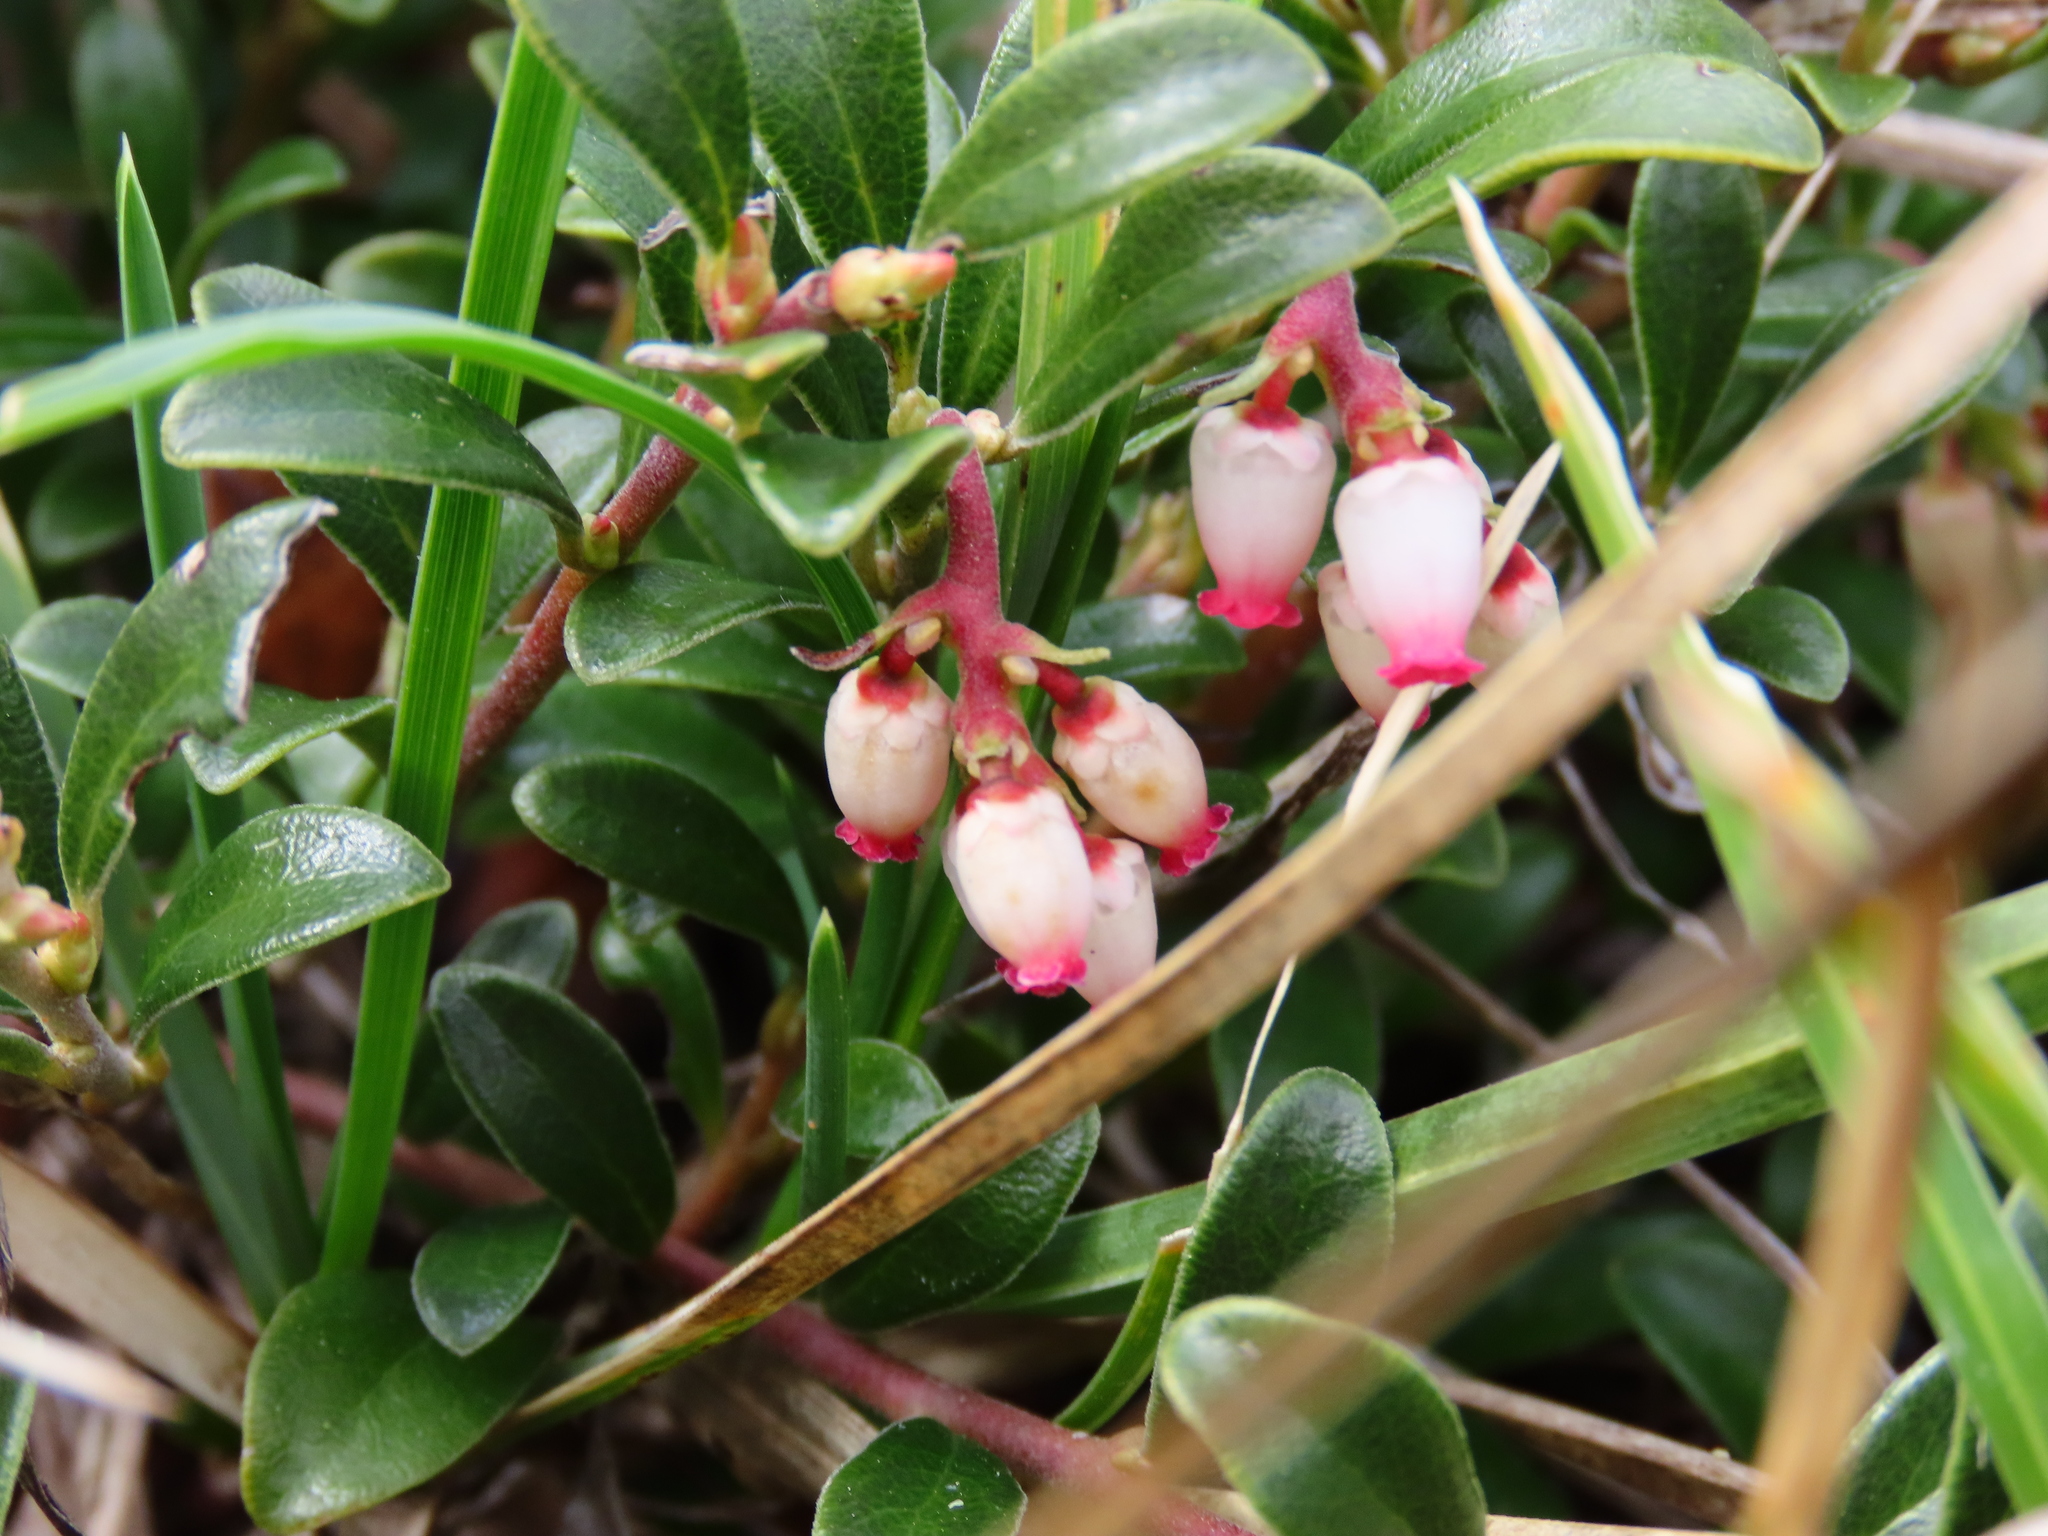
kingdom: Plantae
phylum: Tracheophyta
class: Magnoliopsida
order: Ericales
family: Ericaceae
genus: Arctostaphylos
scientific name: Arctostaphylos uva-ursi
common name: Bearberry
